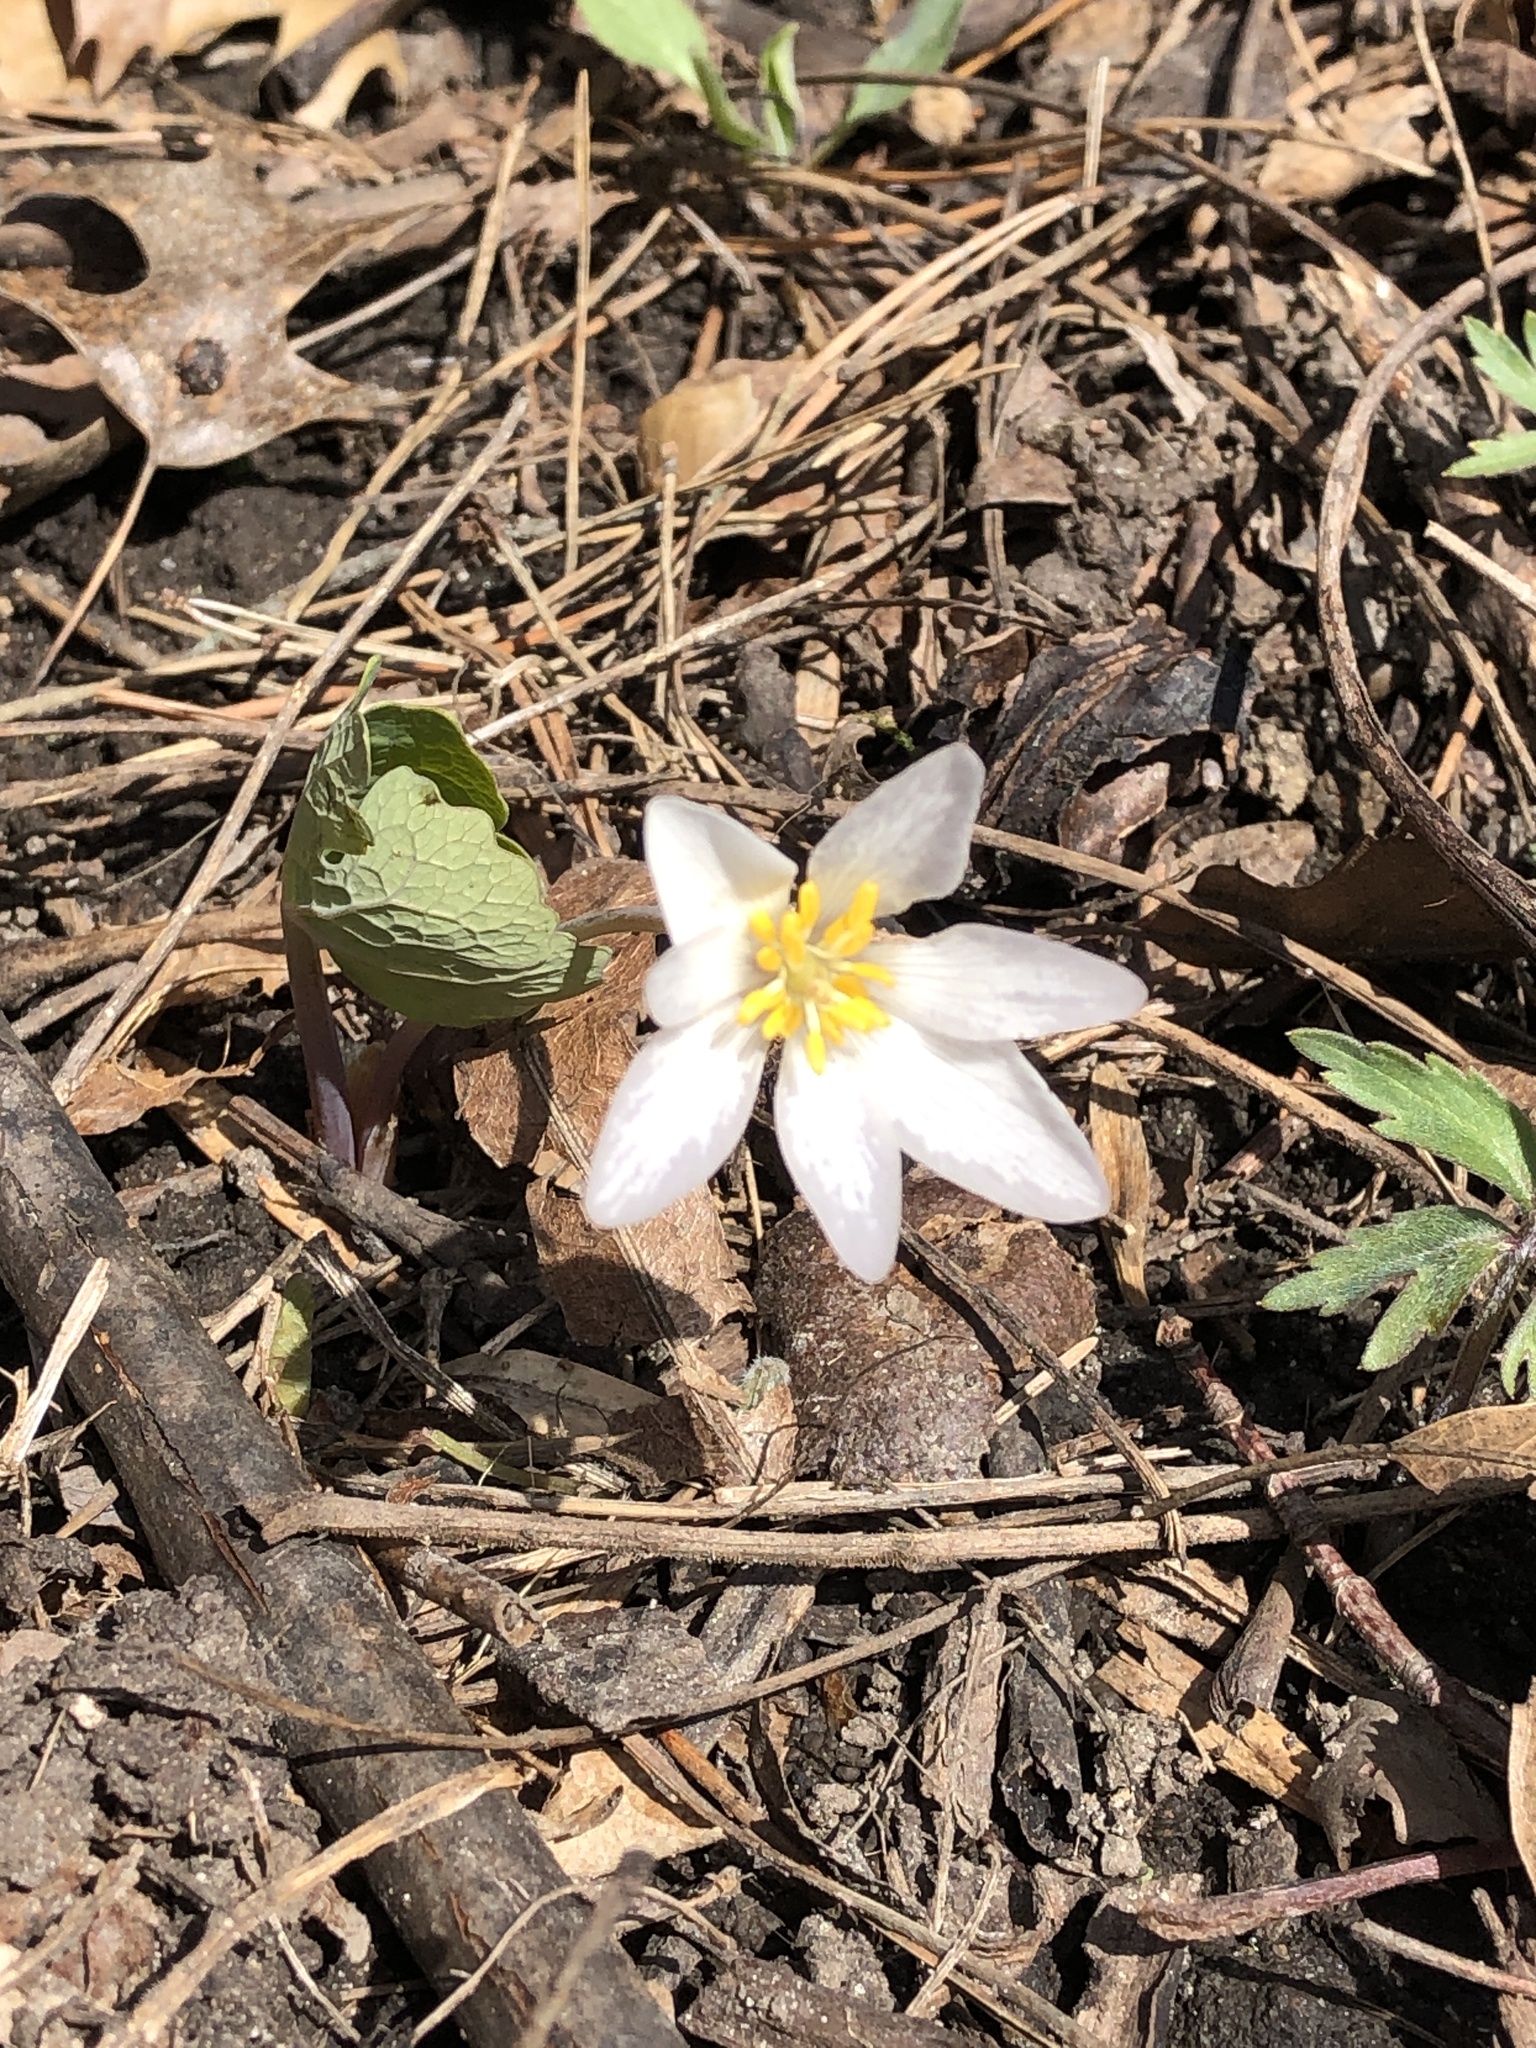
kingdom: Plantae
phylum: Tracheophyta
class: Magnoliopsida
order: Ranunculales
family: Papaveraceae
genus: Sanguinaria
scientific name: Sanguinaria canadensis
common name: Bloodroot
